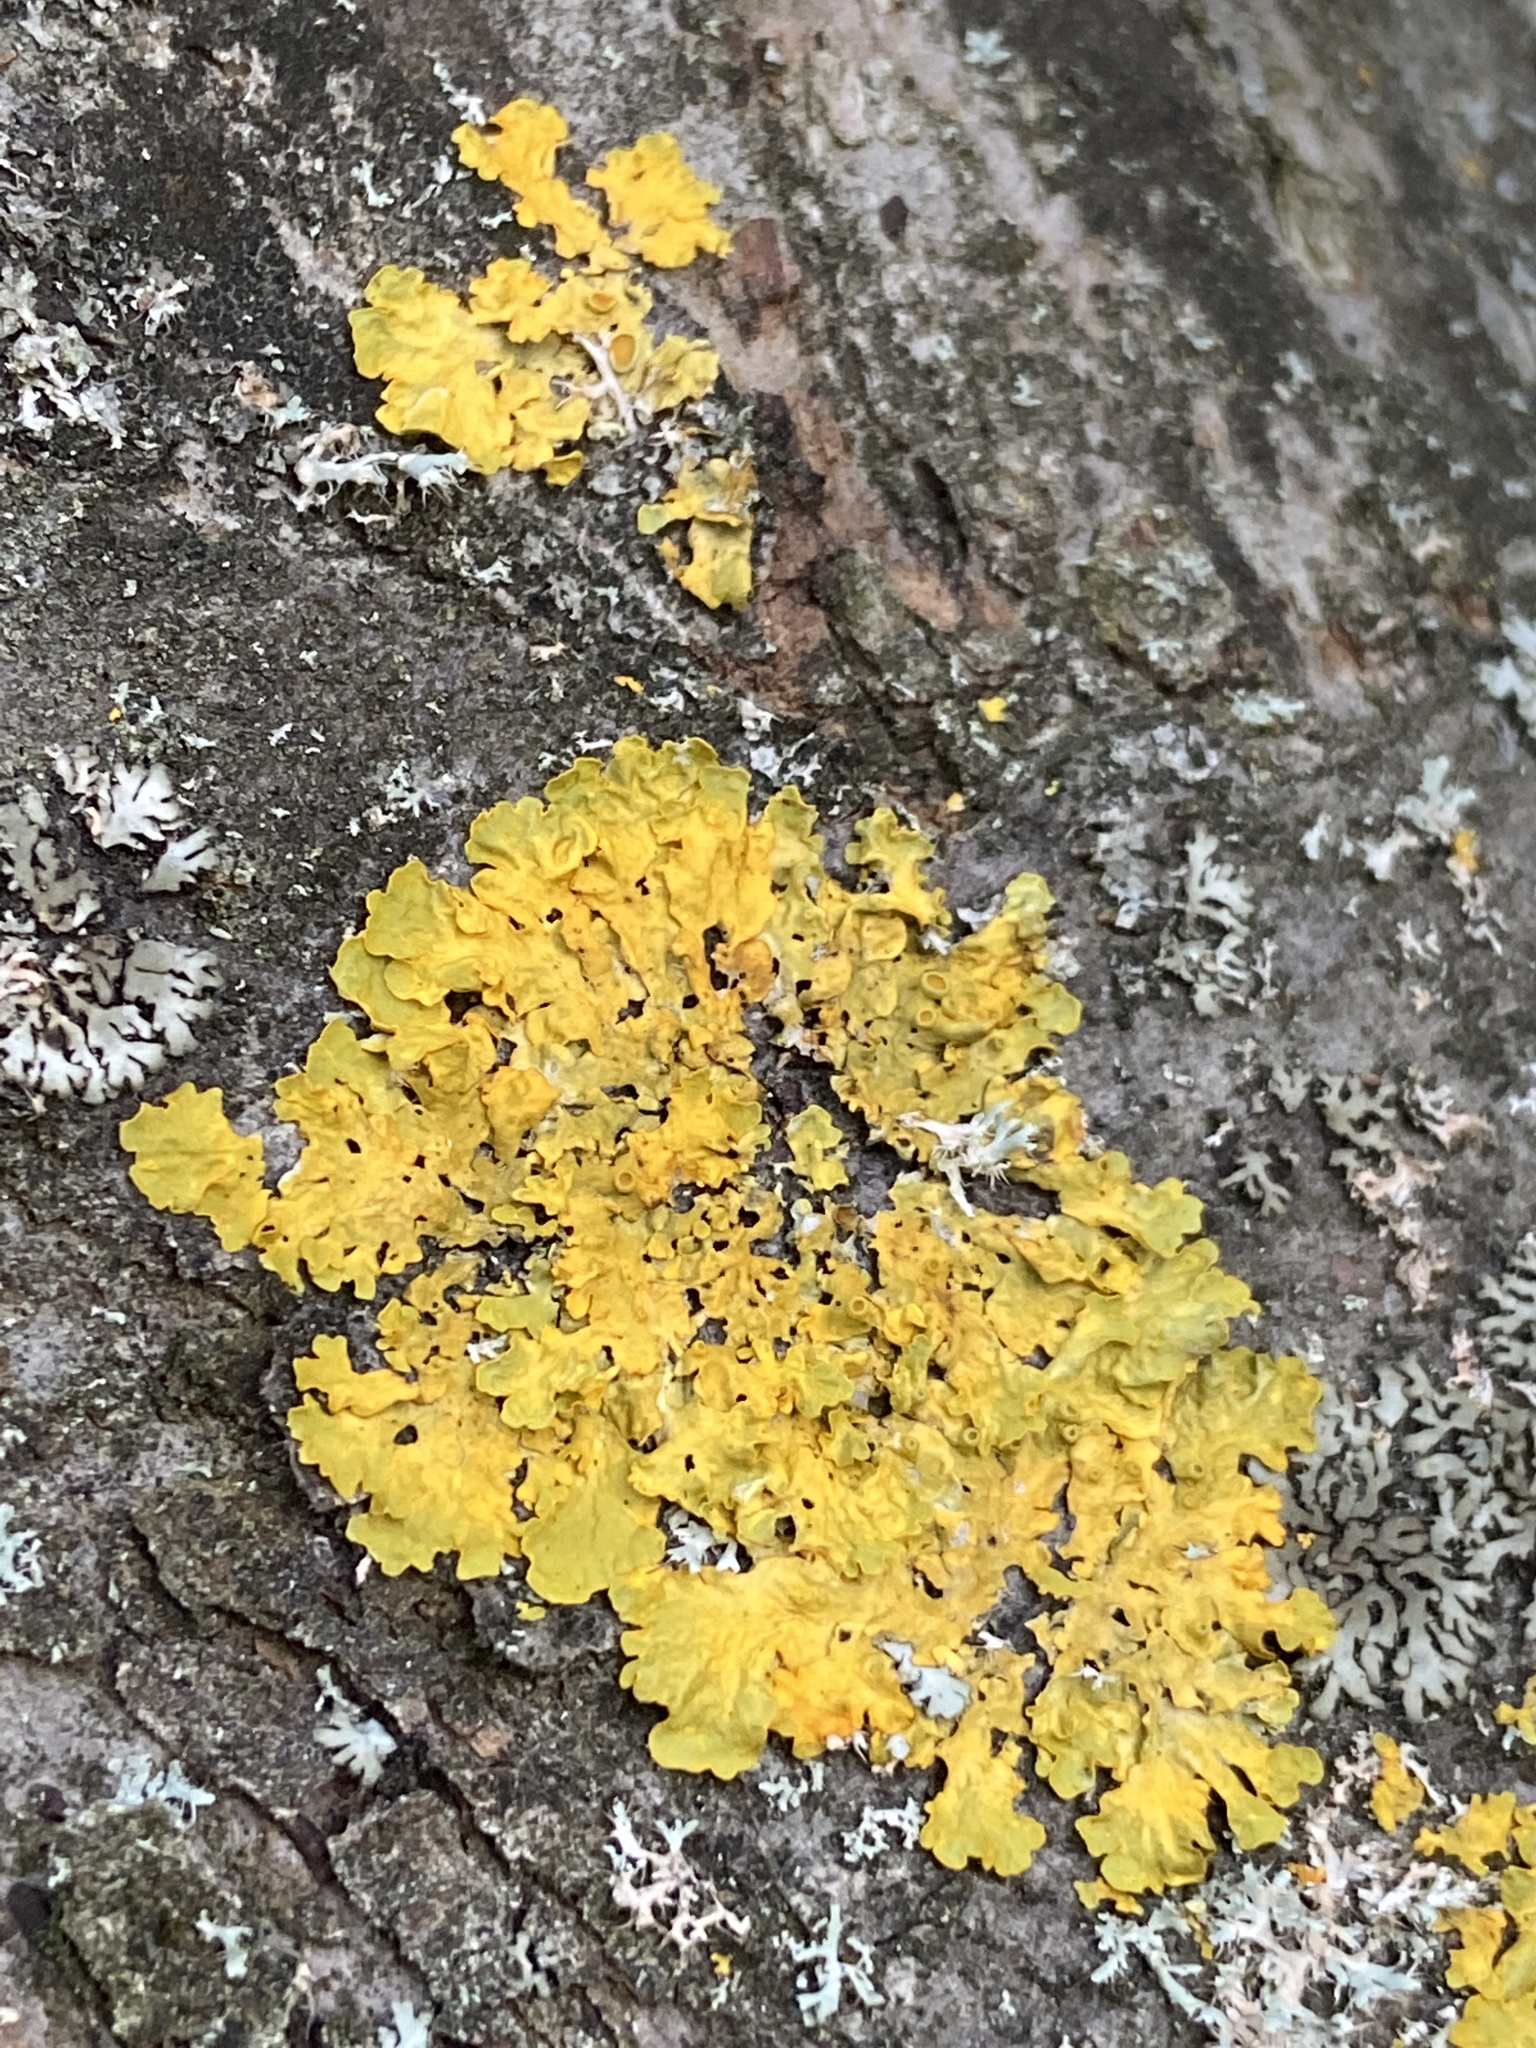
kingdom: Fungi
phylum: Ascomycota
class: Lecanoromycetes
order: Teloschistales
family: Teloschistaceae
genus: Xanthoria
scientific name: Xanthoria parietina
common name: Common orange lichen
